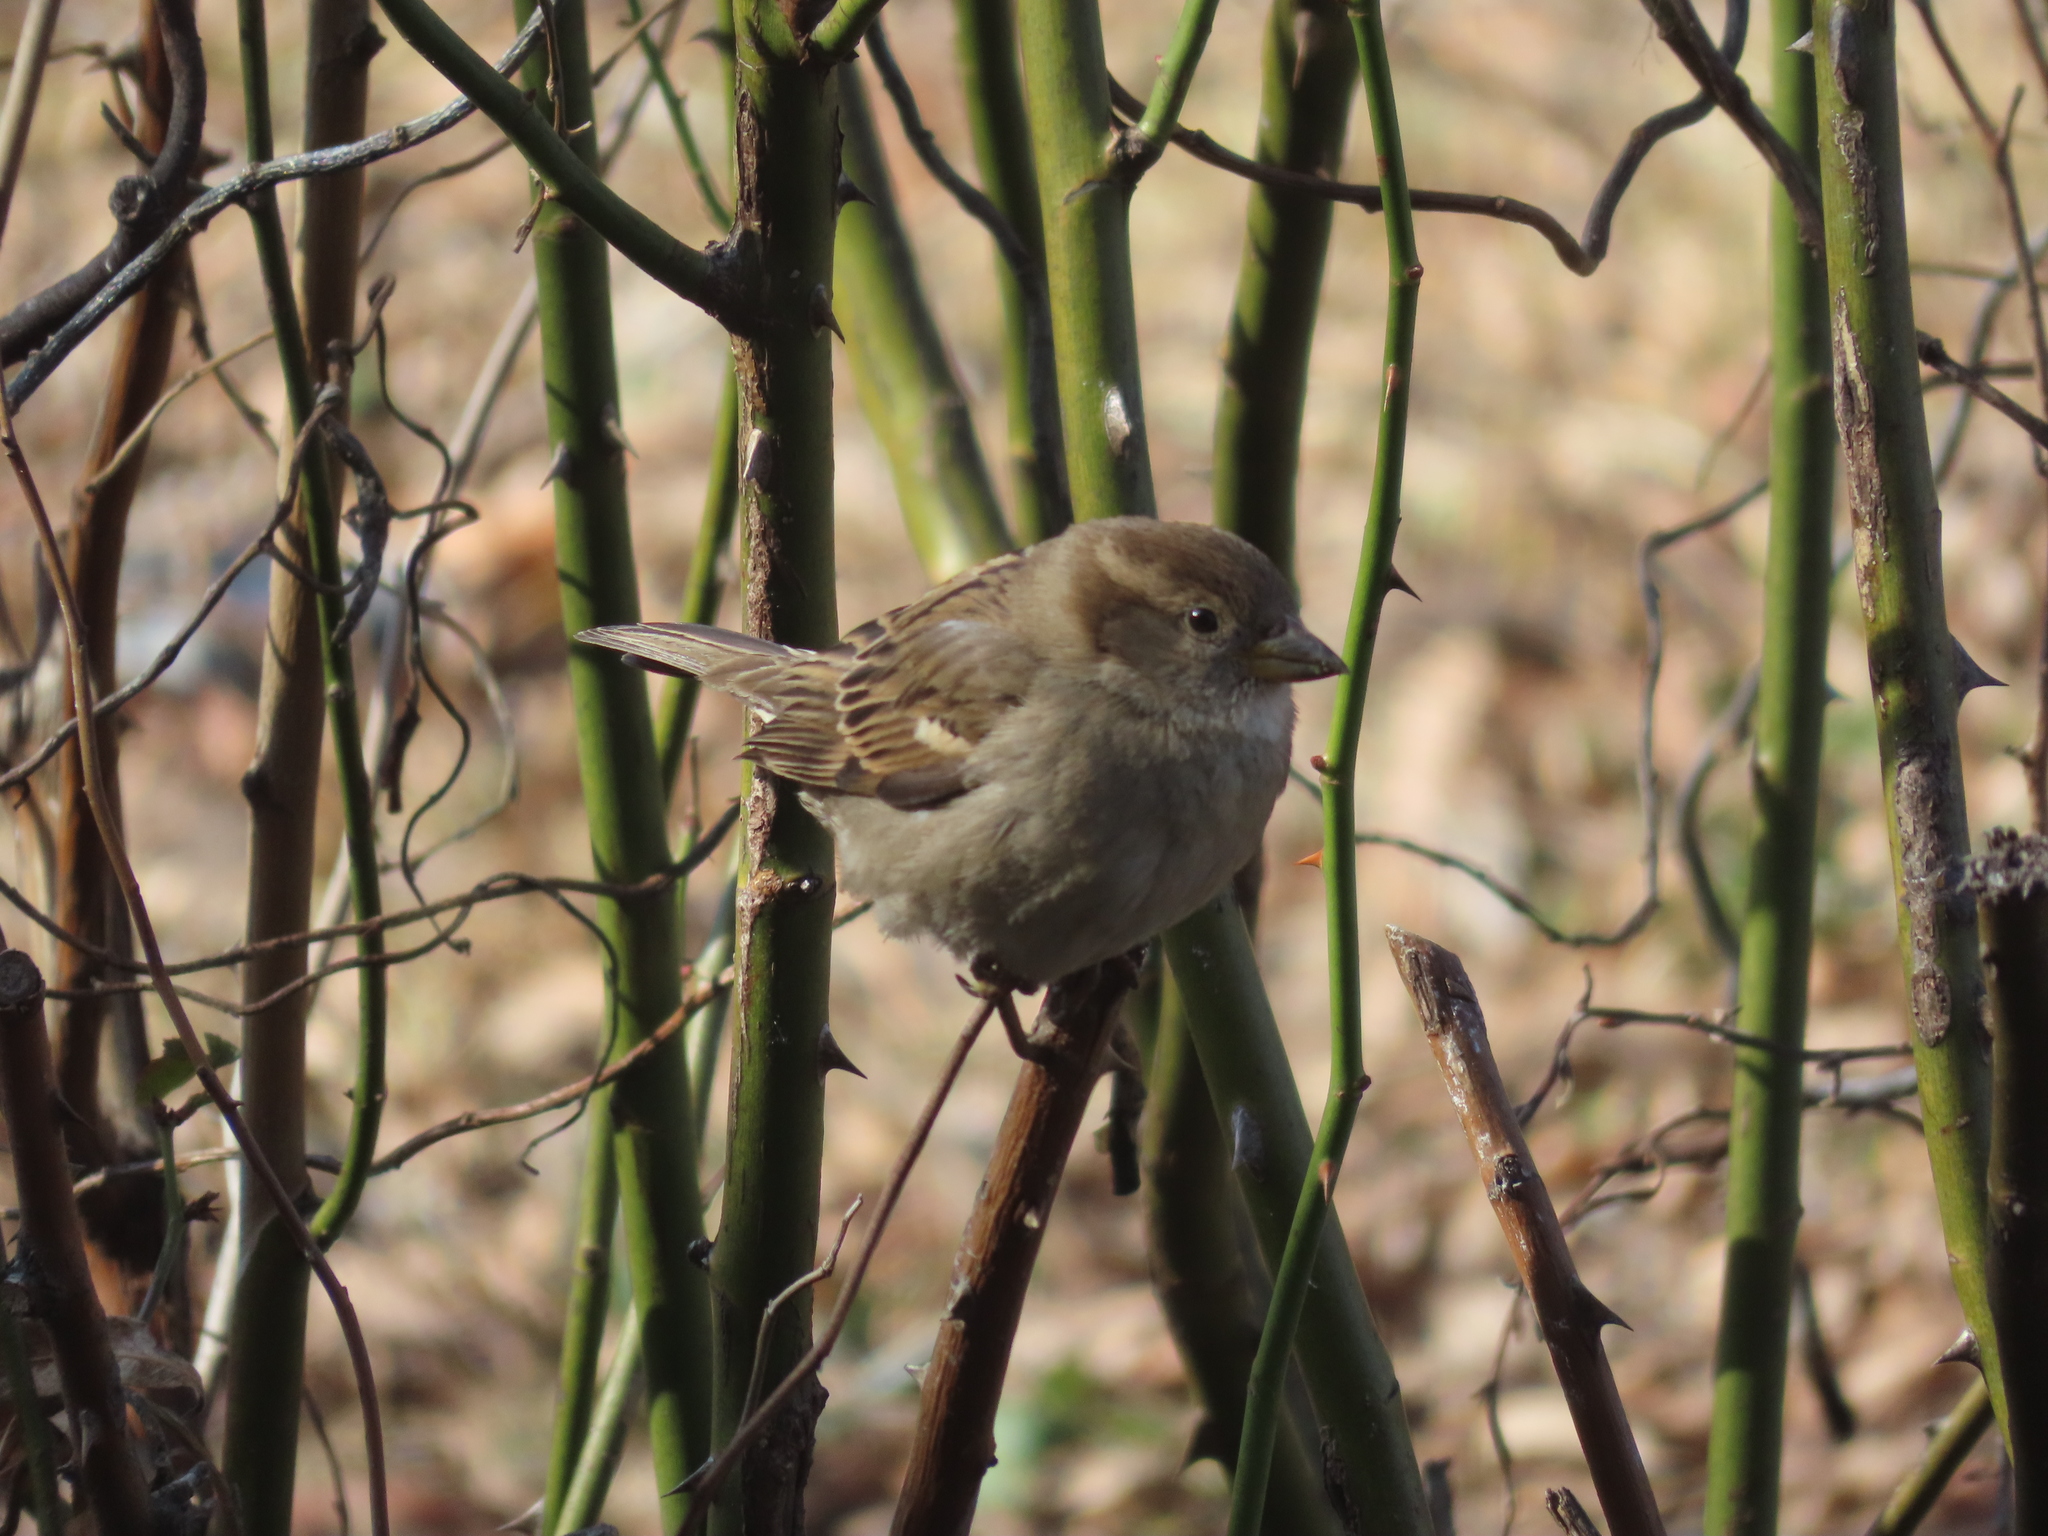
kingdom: Animalia
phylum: Chordata
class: Aves
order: Passeriformes
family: Passeridae
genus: Passer
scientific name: Passer domesticus
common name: House sparrow
